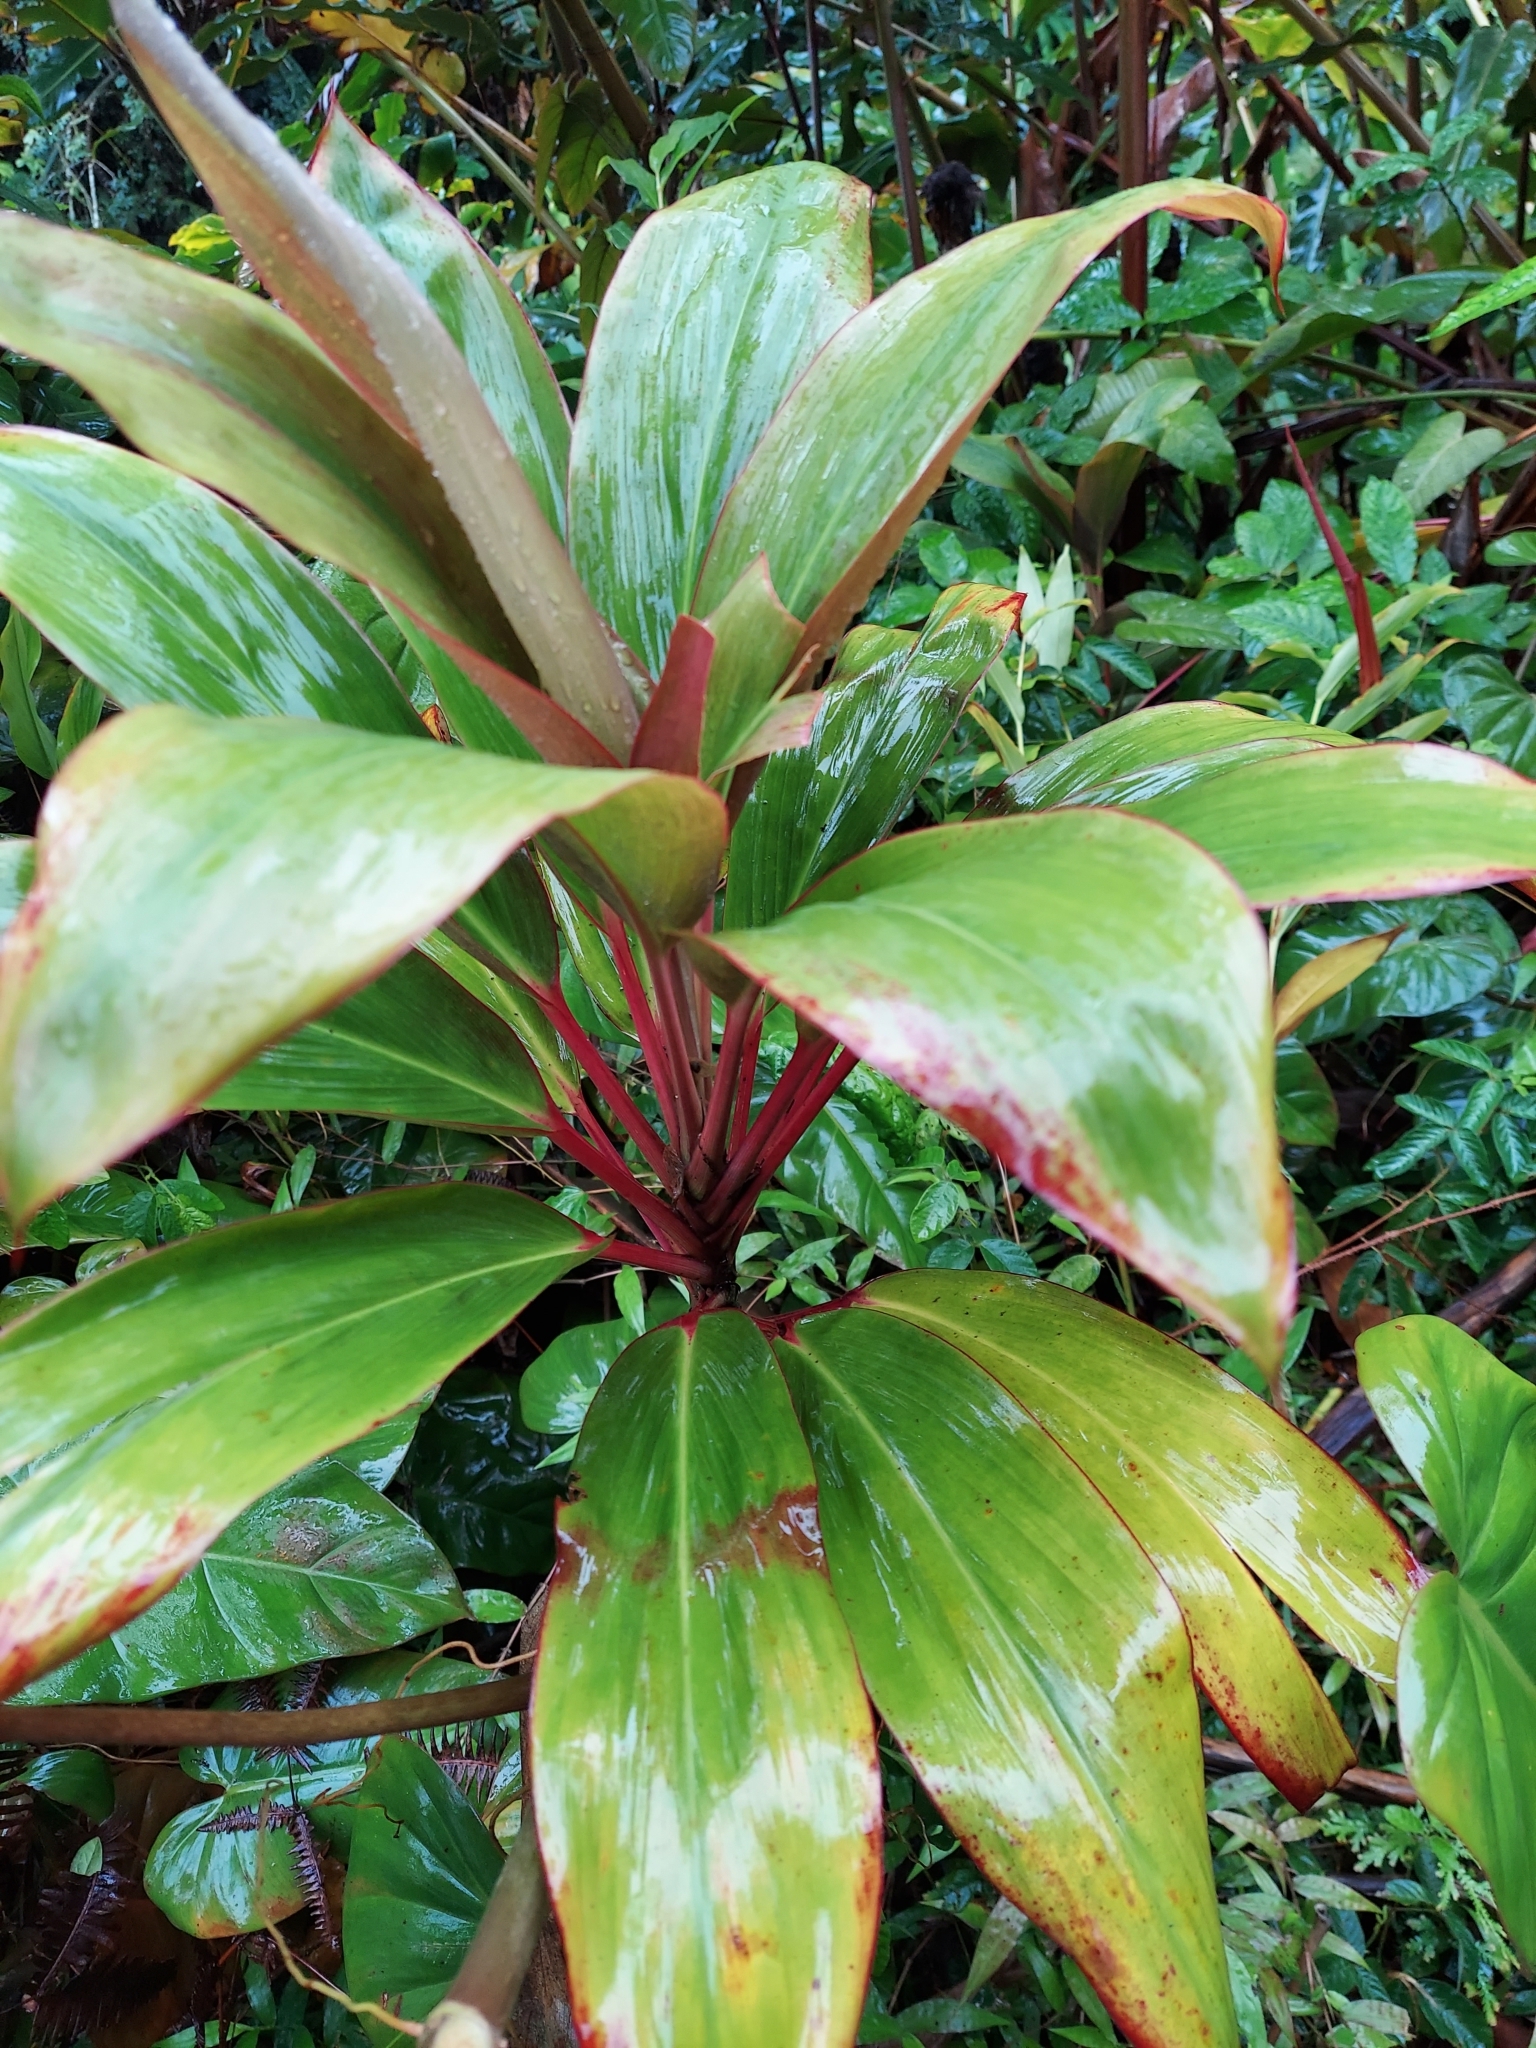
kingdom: Plantae
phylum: Tracheophyta
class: Liliopsida
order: Asparagales
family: Asparagaceae
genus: Cordyline
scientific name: Cordyline fruticosa
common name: Good-luck-plant
